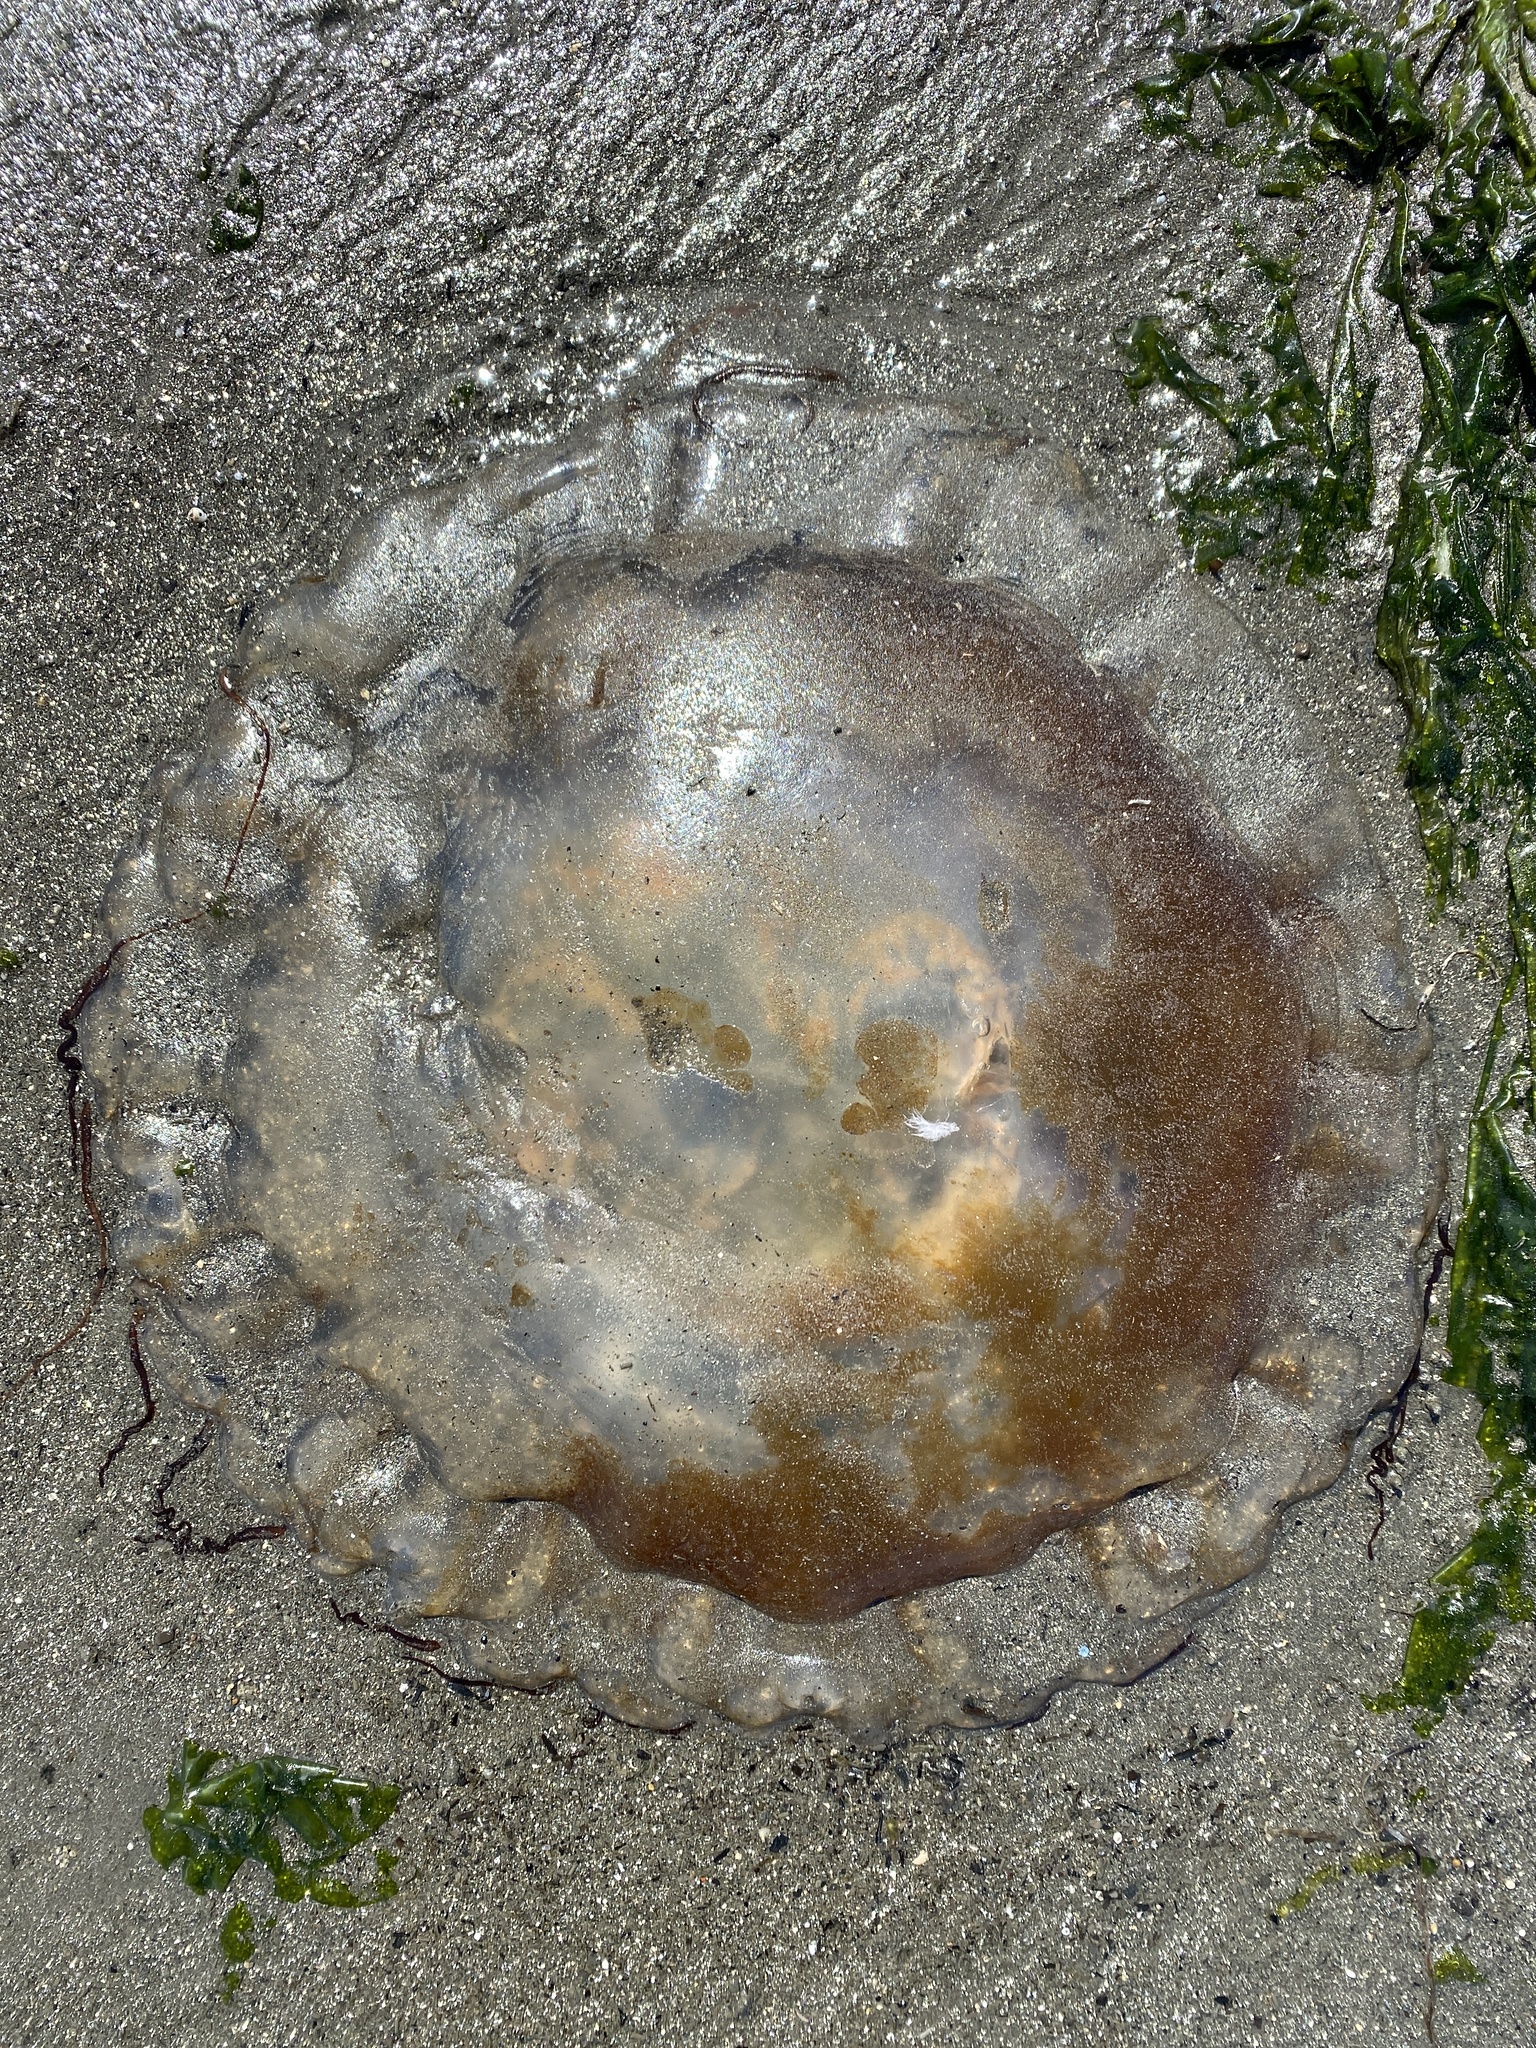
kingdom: Animalia
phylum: Cnidaria
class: Scyphozoa
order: Semaeostomeae
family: Pelagiidae
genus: Chrysaora
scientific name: Chrysaora fuscescens
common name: Sea nettle
